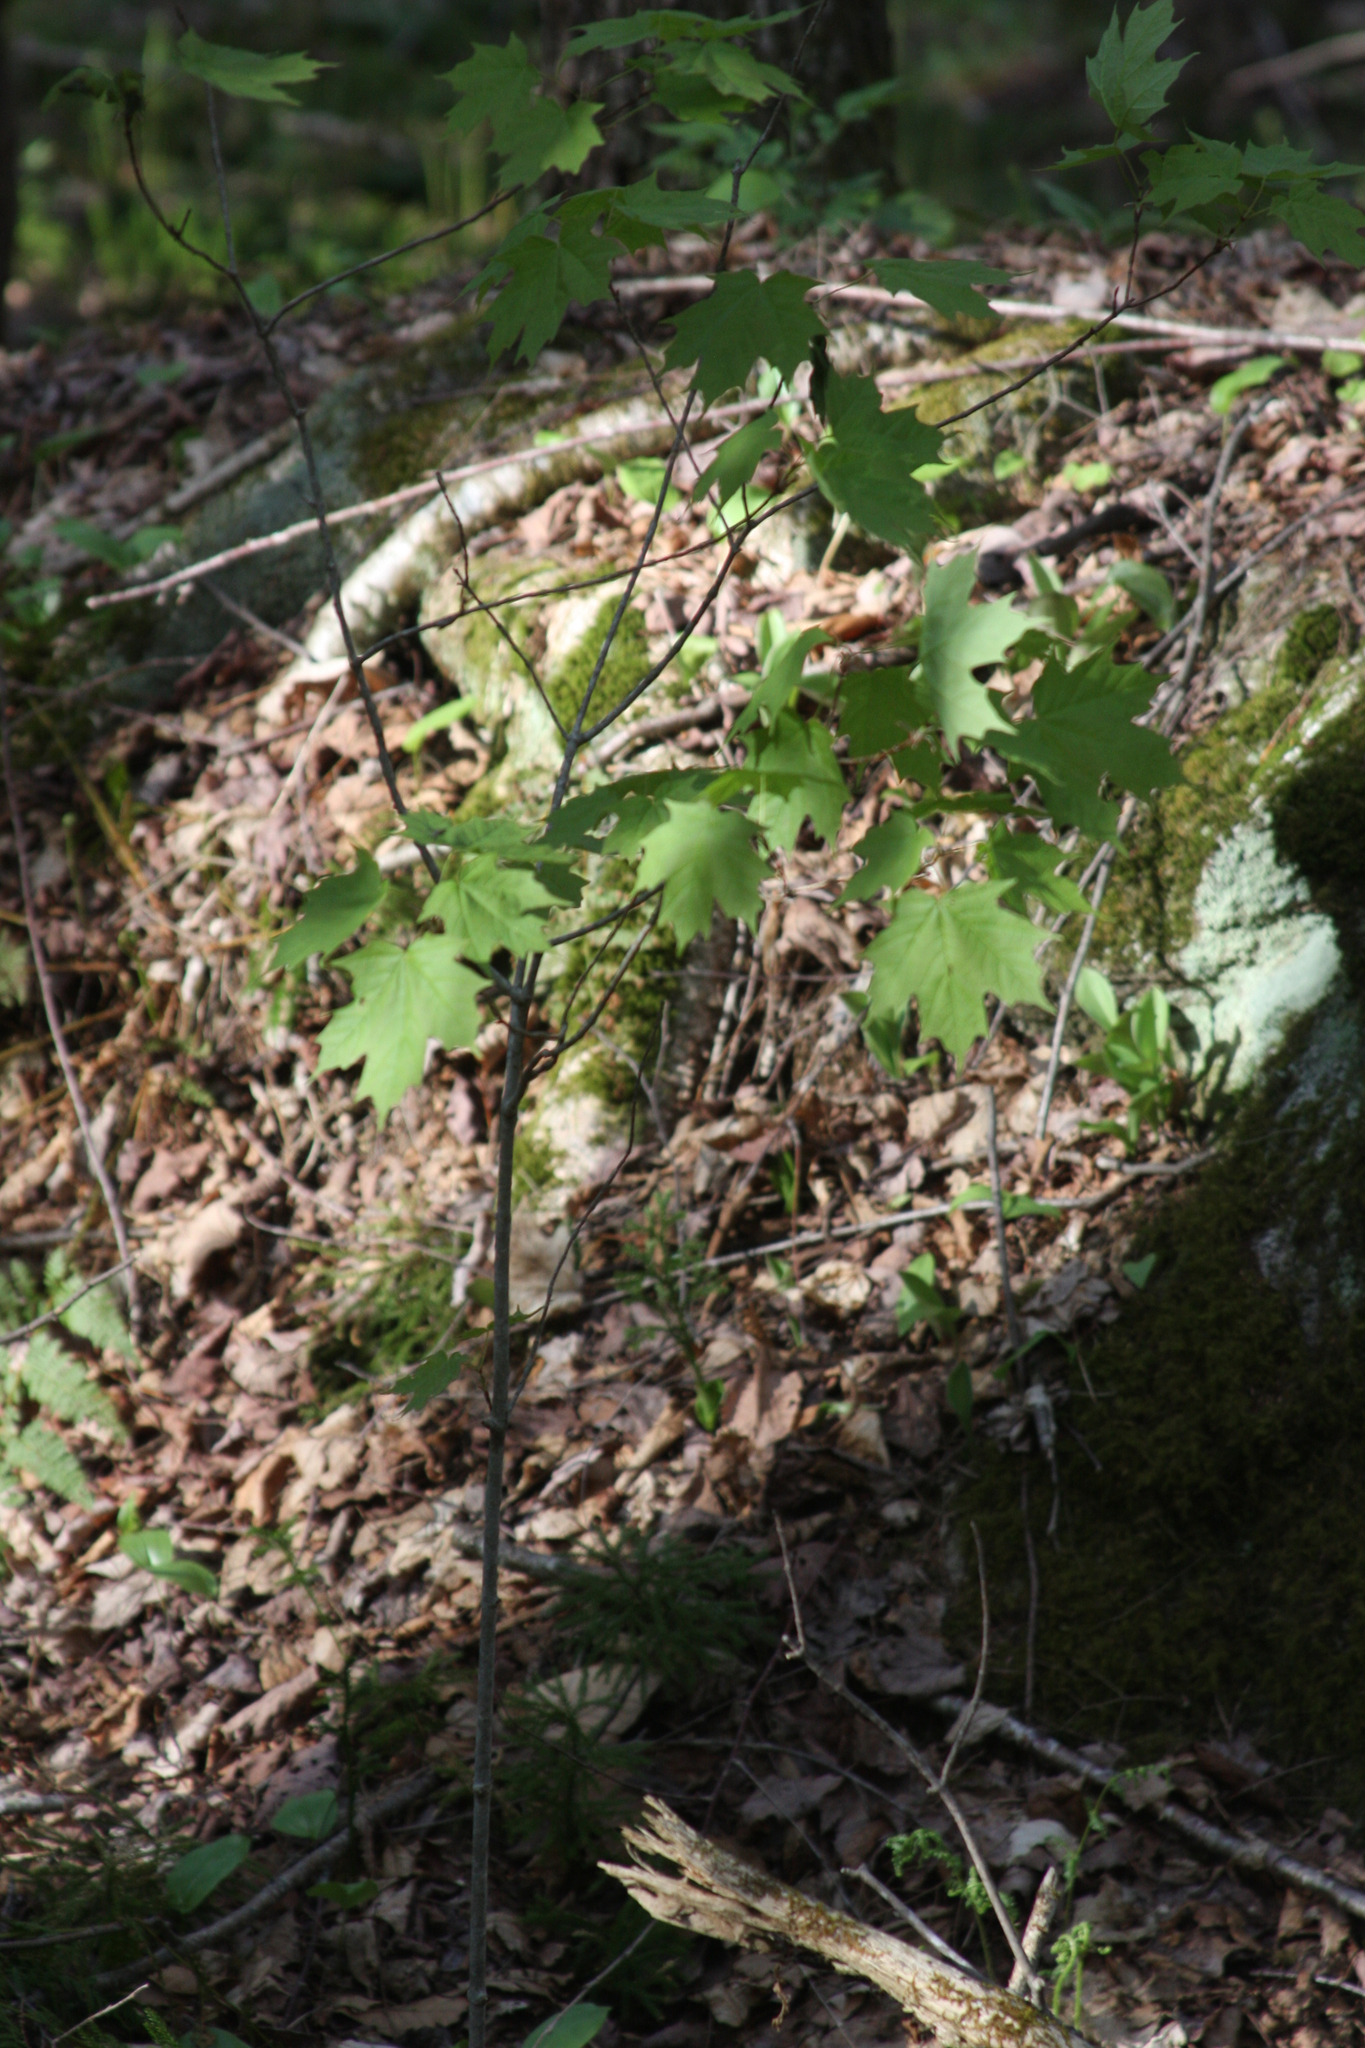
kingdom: Plantae
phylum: Tracheophyta
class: Magnoliopsida
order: Sapindales
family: Sapindaceae
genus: Acer
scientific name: Acer saccharum
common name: Sugar maple
